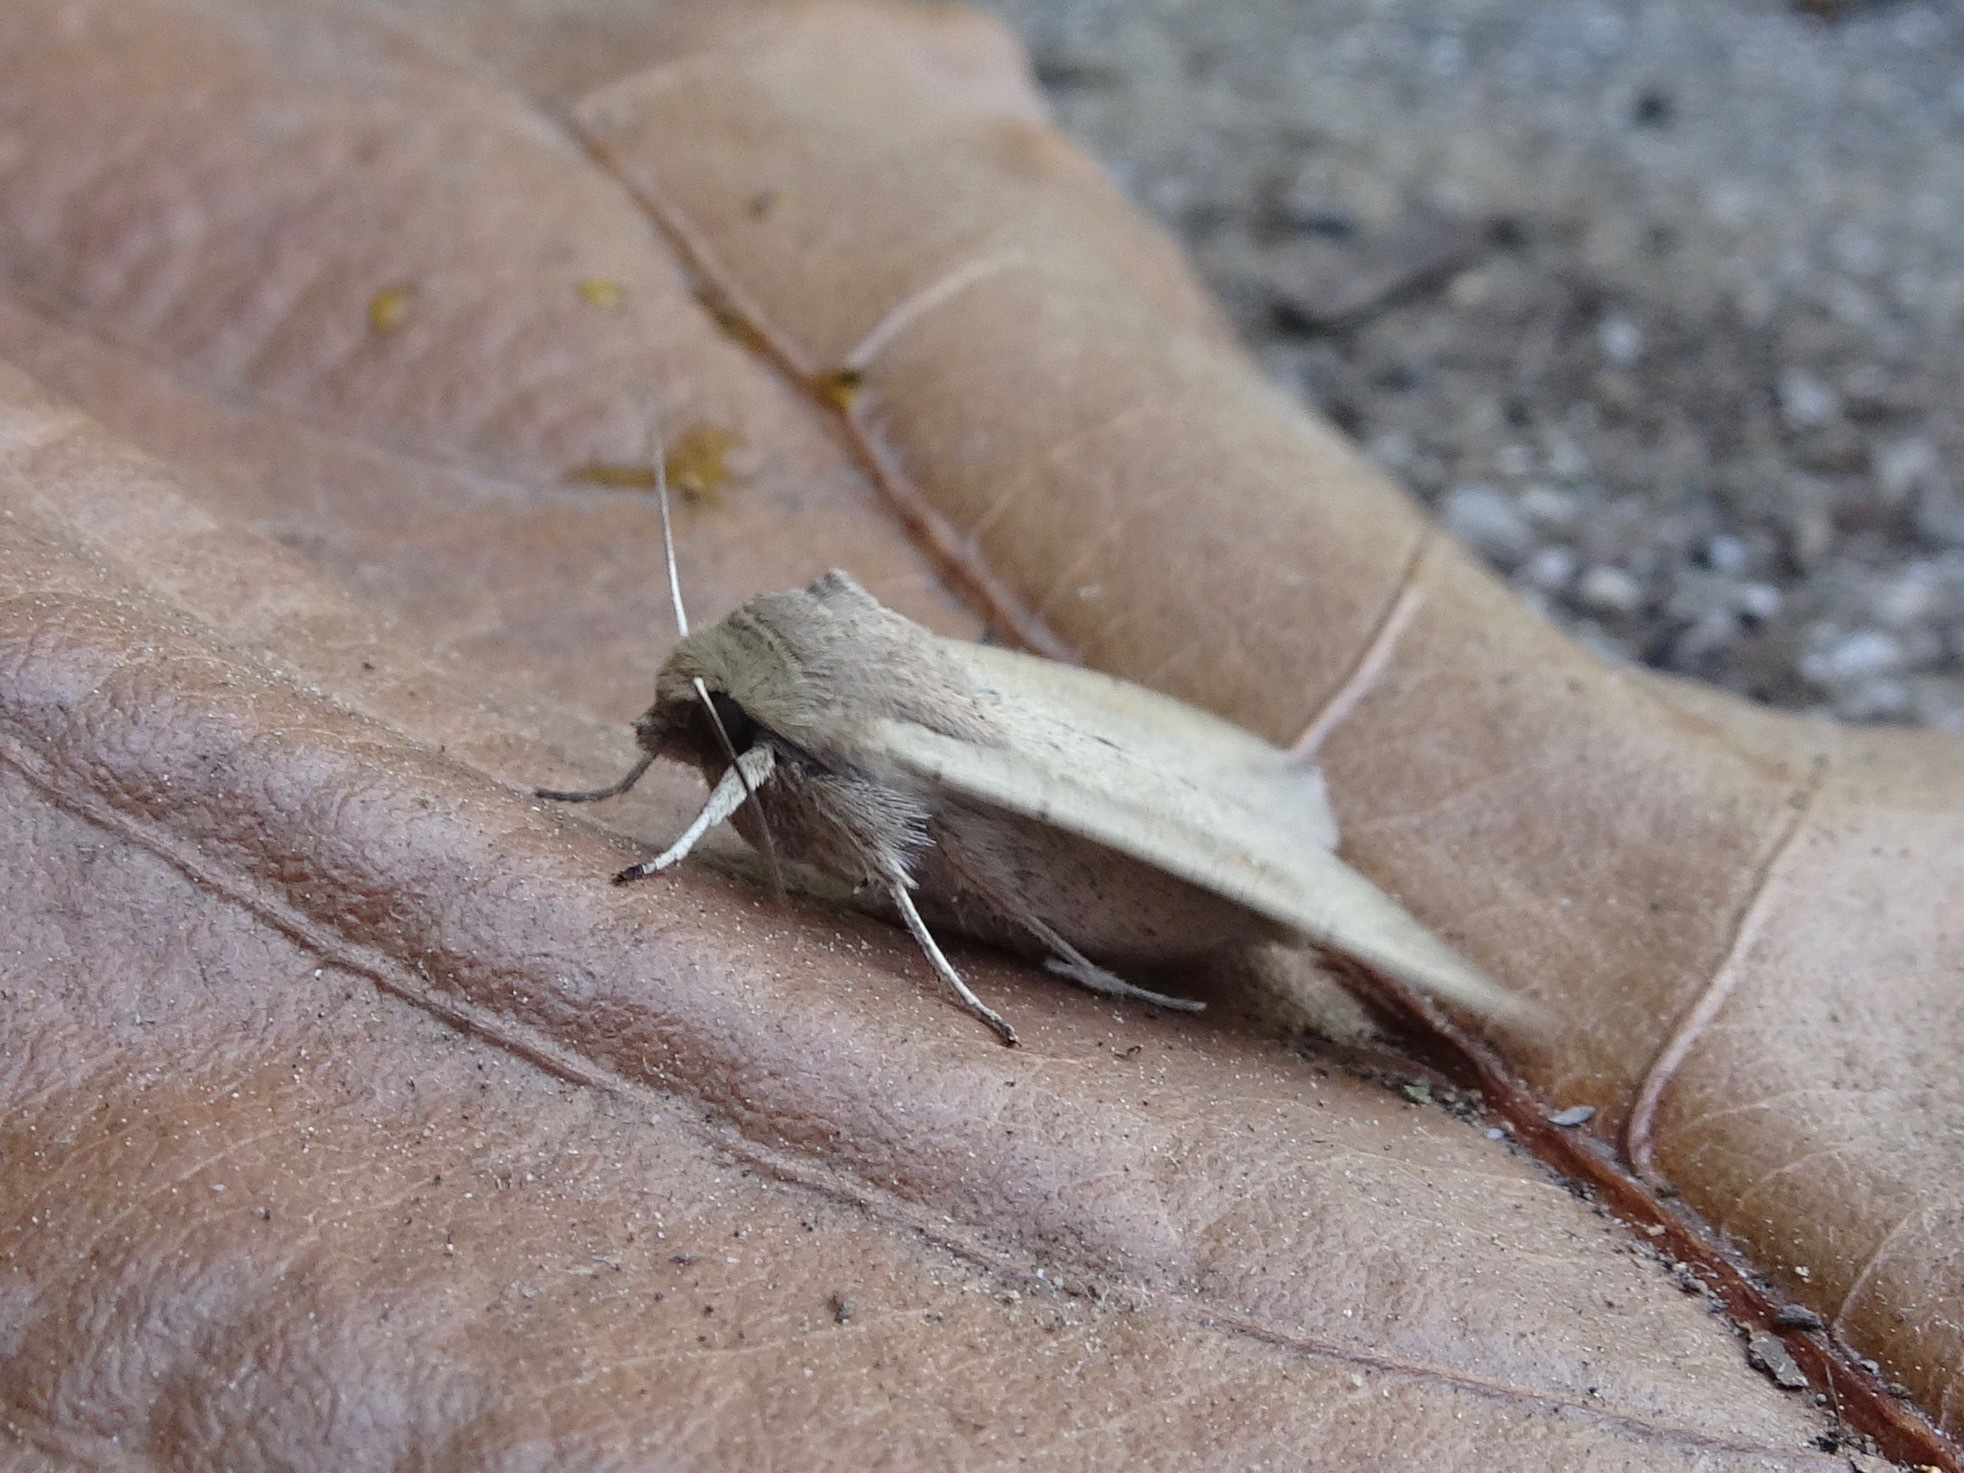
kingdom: Animalia
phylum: Arthropoda
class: Insecta
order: Lepidoptera
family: Noctuidae
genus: Mythimna
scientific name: Mythimna unipuncta
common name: White-speck
